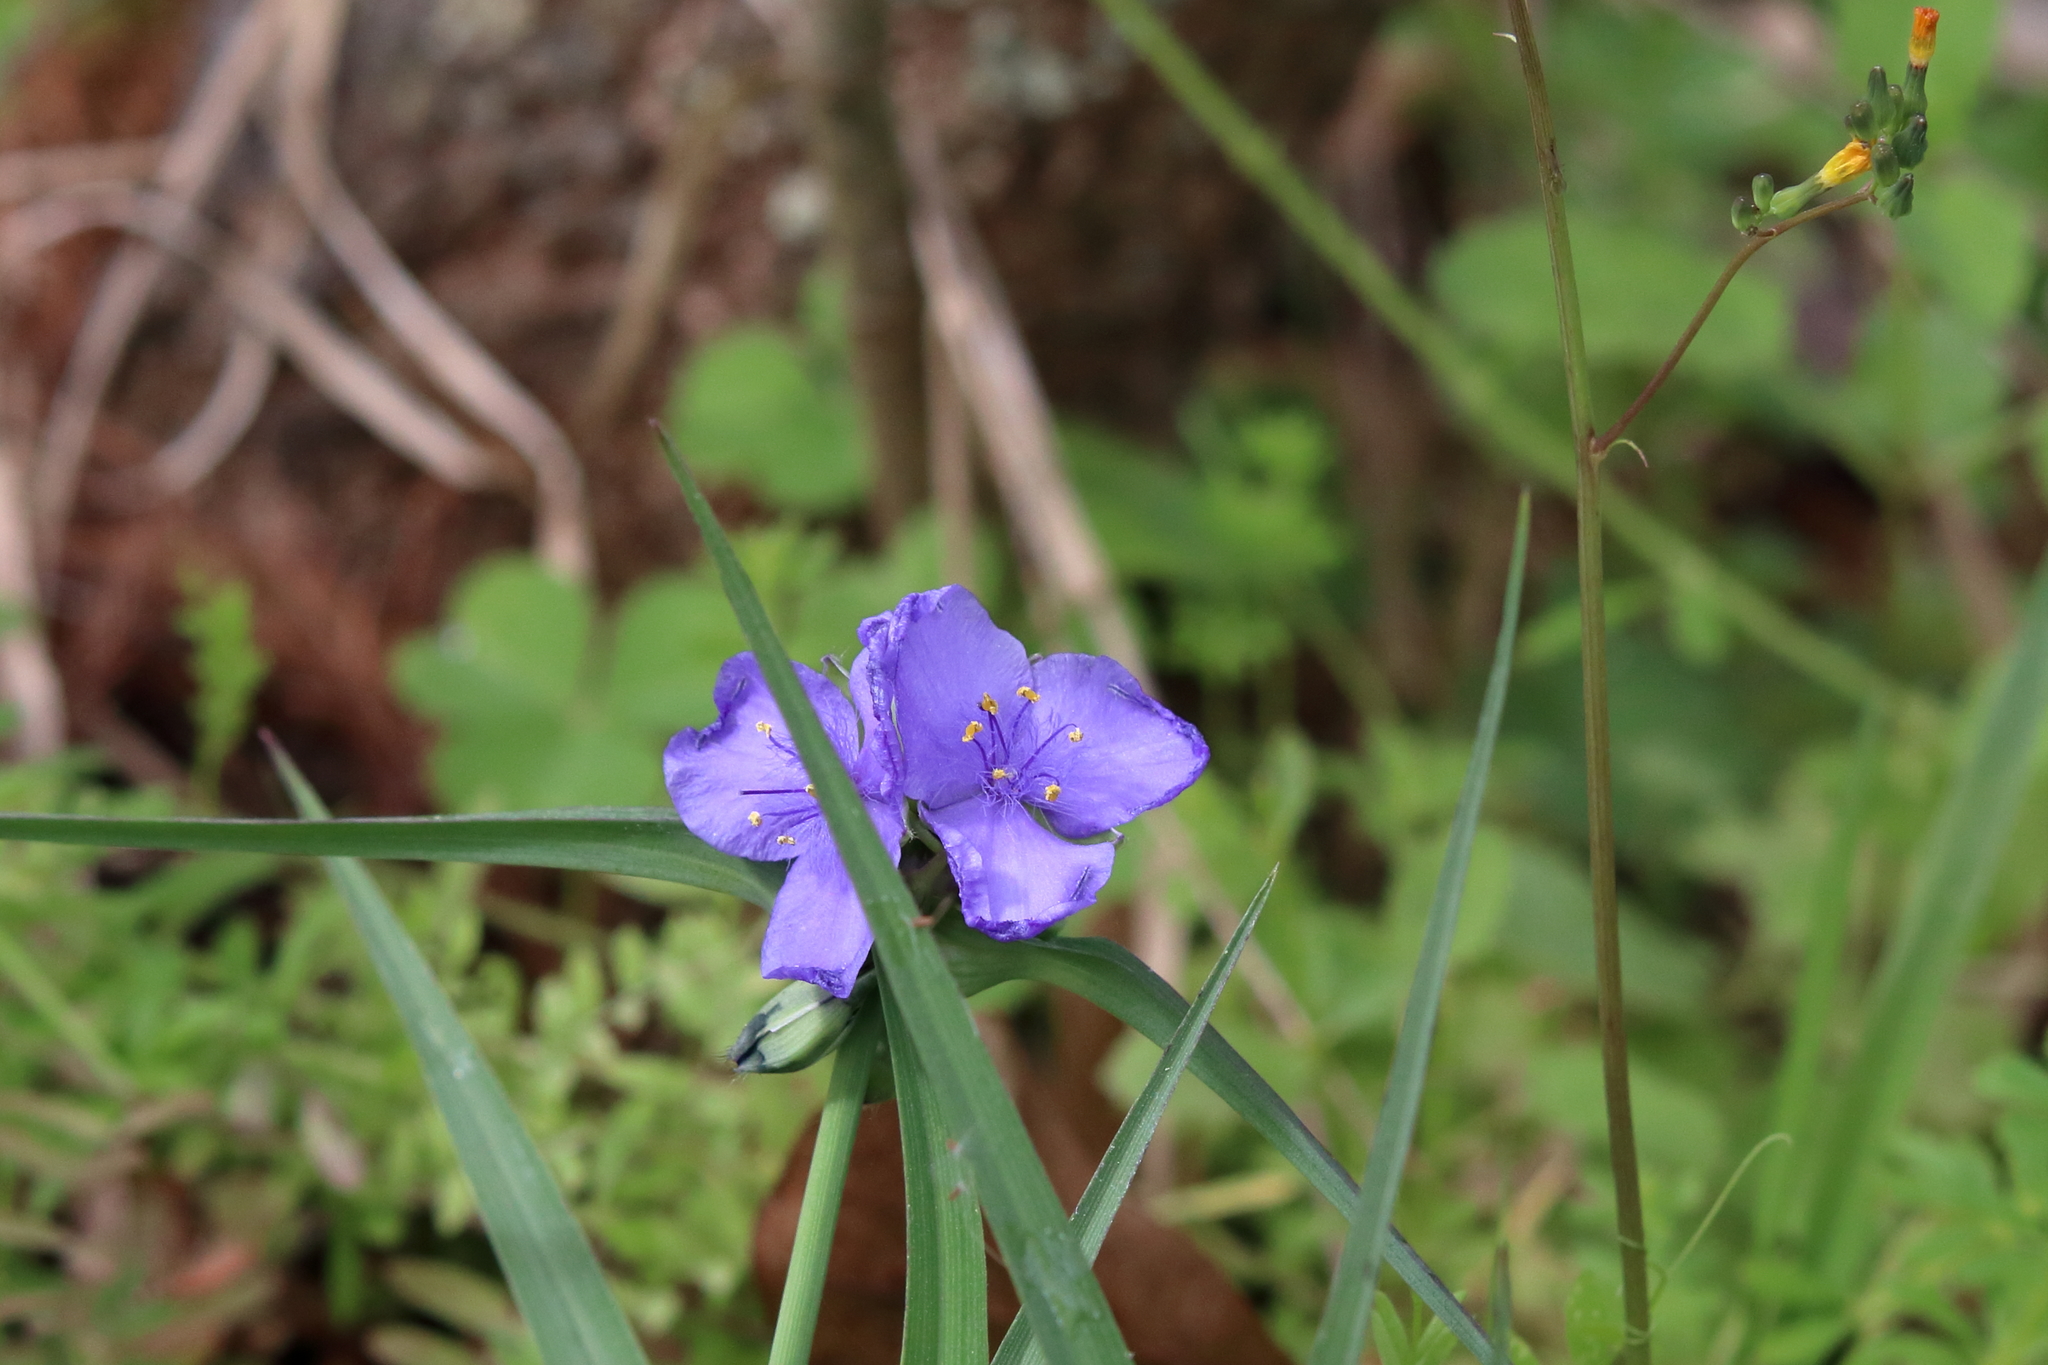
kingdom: Plantae
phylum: Tracheophyta
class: Liliopsida
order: Commelinales
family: Commelinaceae
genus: Tradescantia
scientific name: Tradescantia ohiensis
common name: Ohio spiderwort
